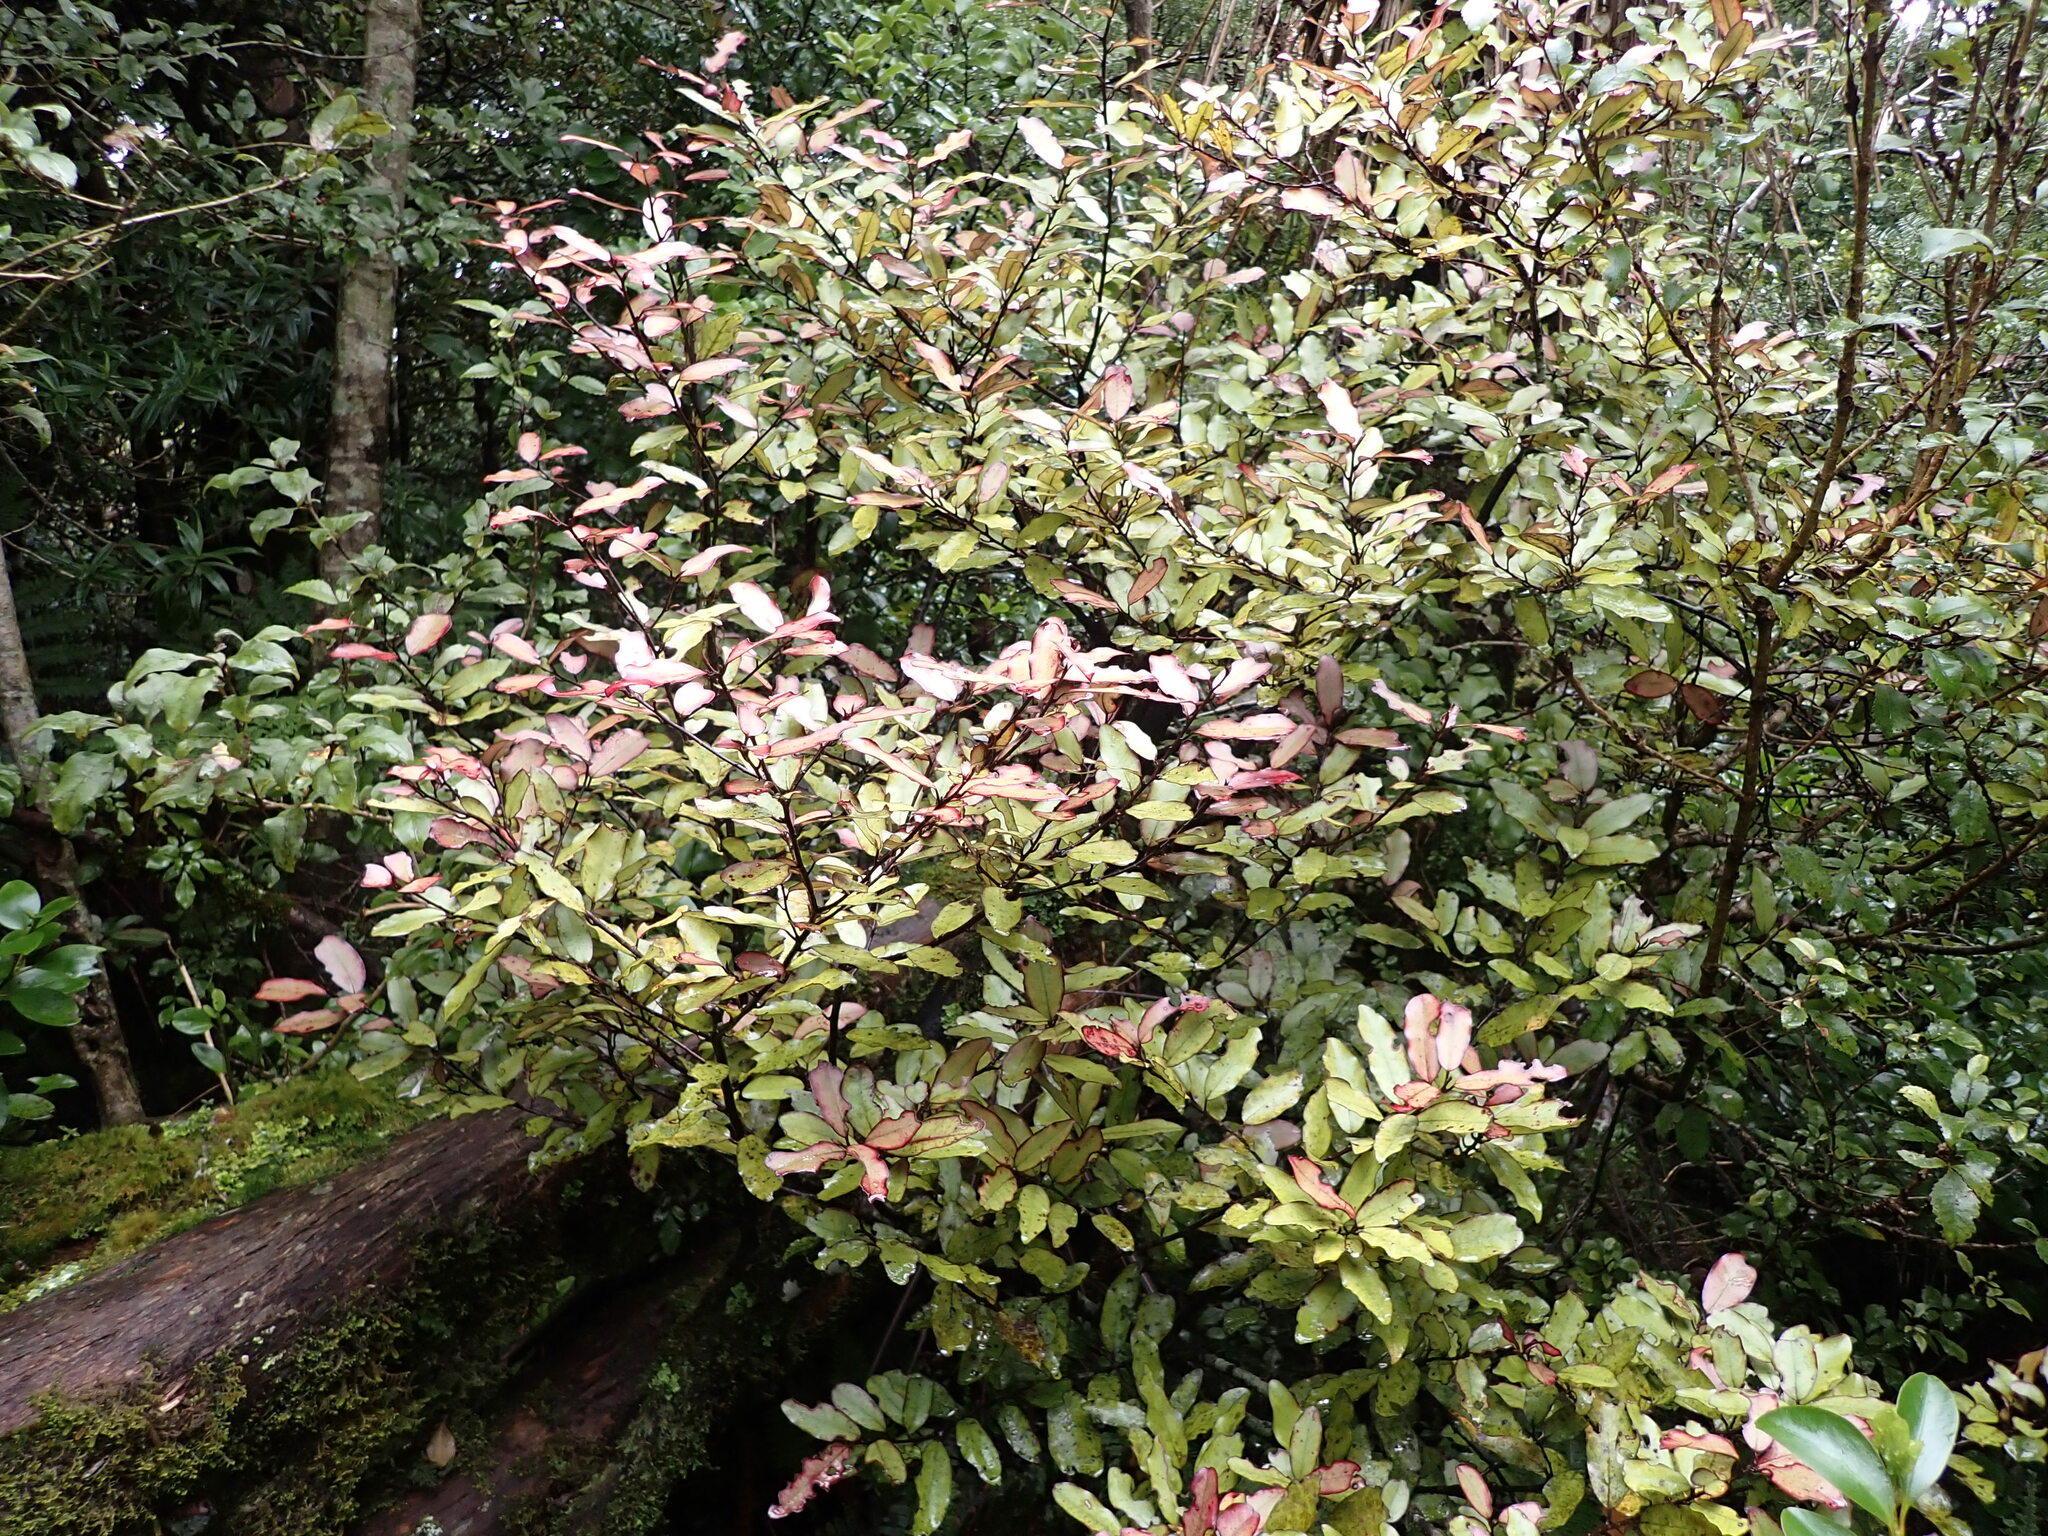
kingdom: Plantae
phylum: Tracheophyta
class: Magnoliopsida
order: Canellales
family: Winteraceae
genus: Pseudowintera
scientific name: Pseudowintera colorata
